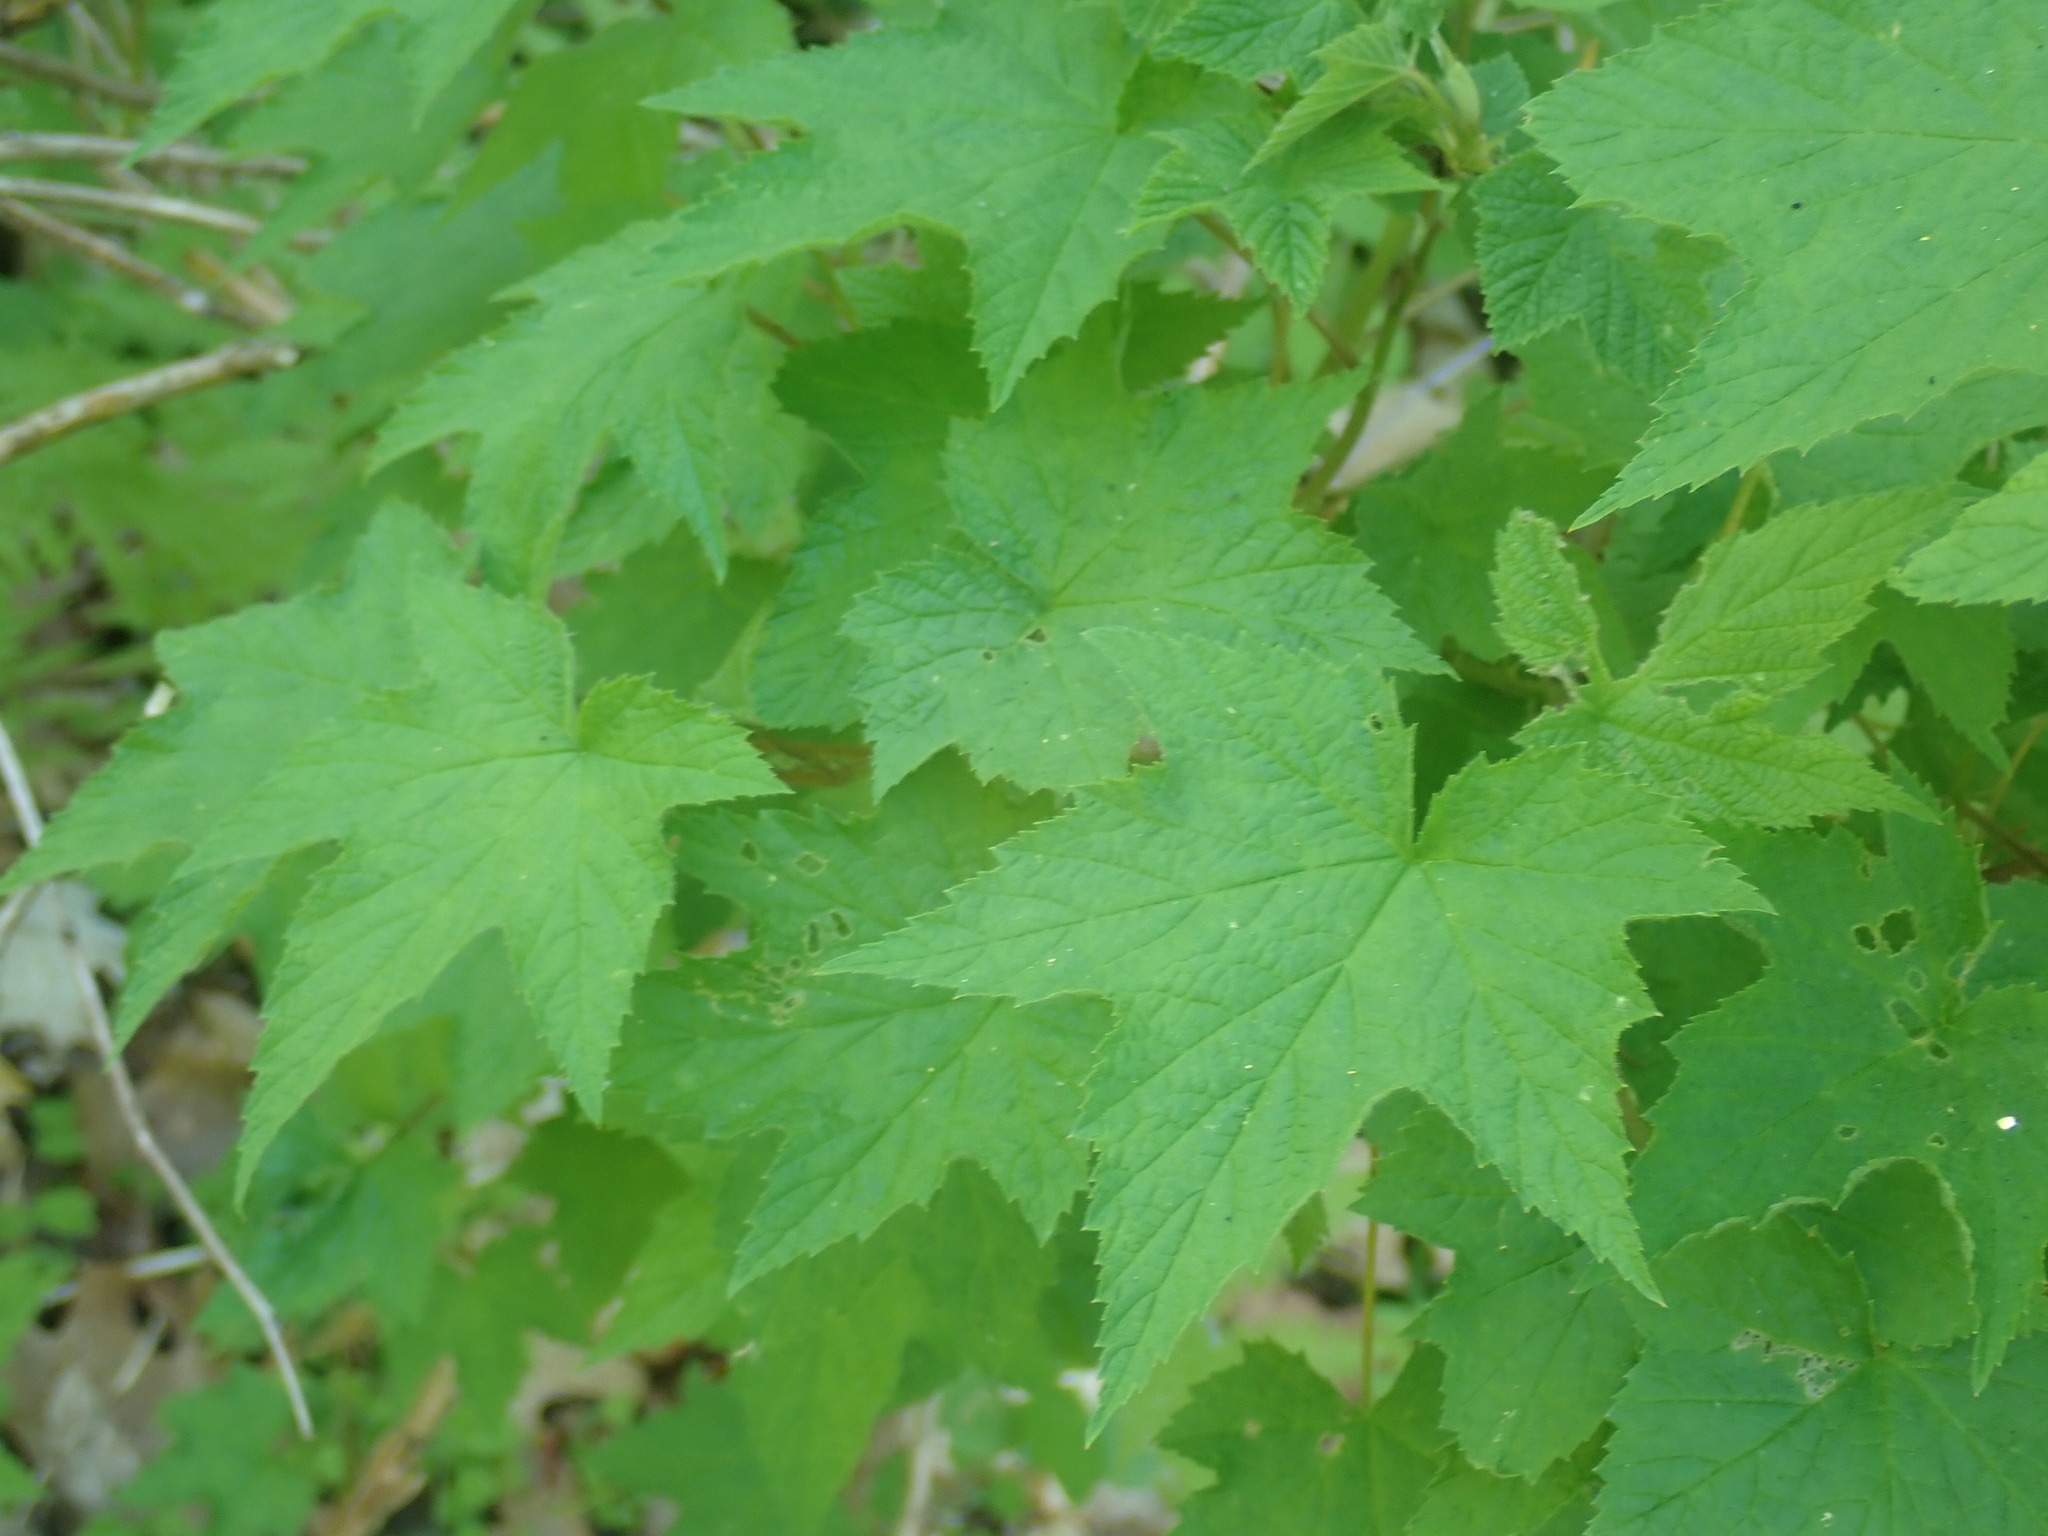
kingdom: Plantae
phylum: Tracheophyta
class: Magnoliopsida
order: Rosales
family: Rosaceae
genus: Rubus
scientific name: Rubus odoratus
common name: Purple-flowered raspberry
